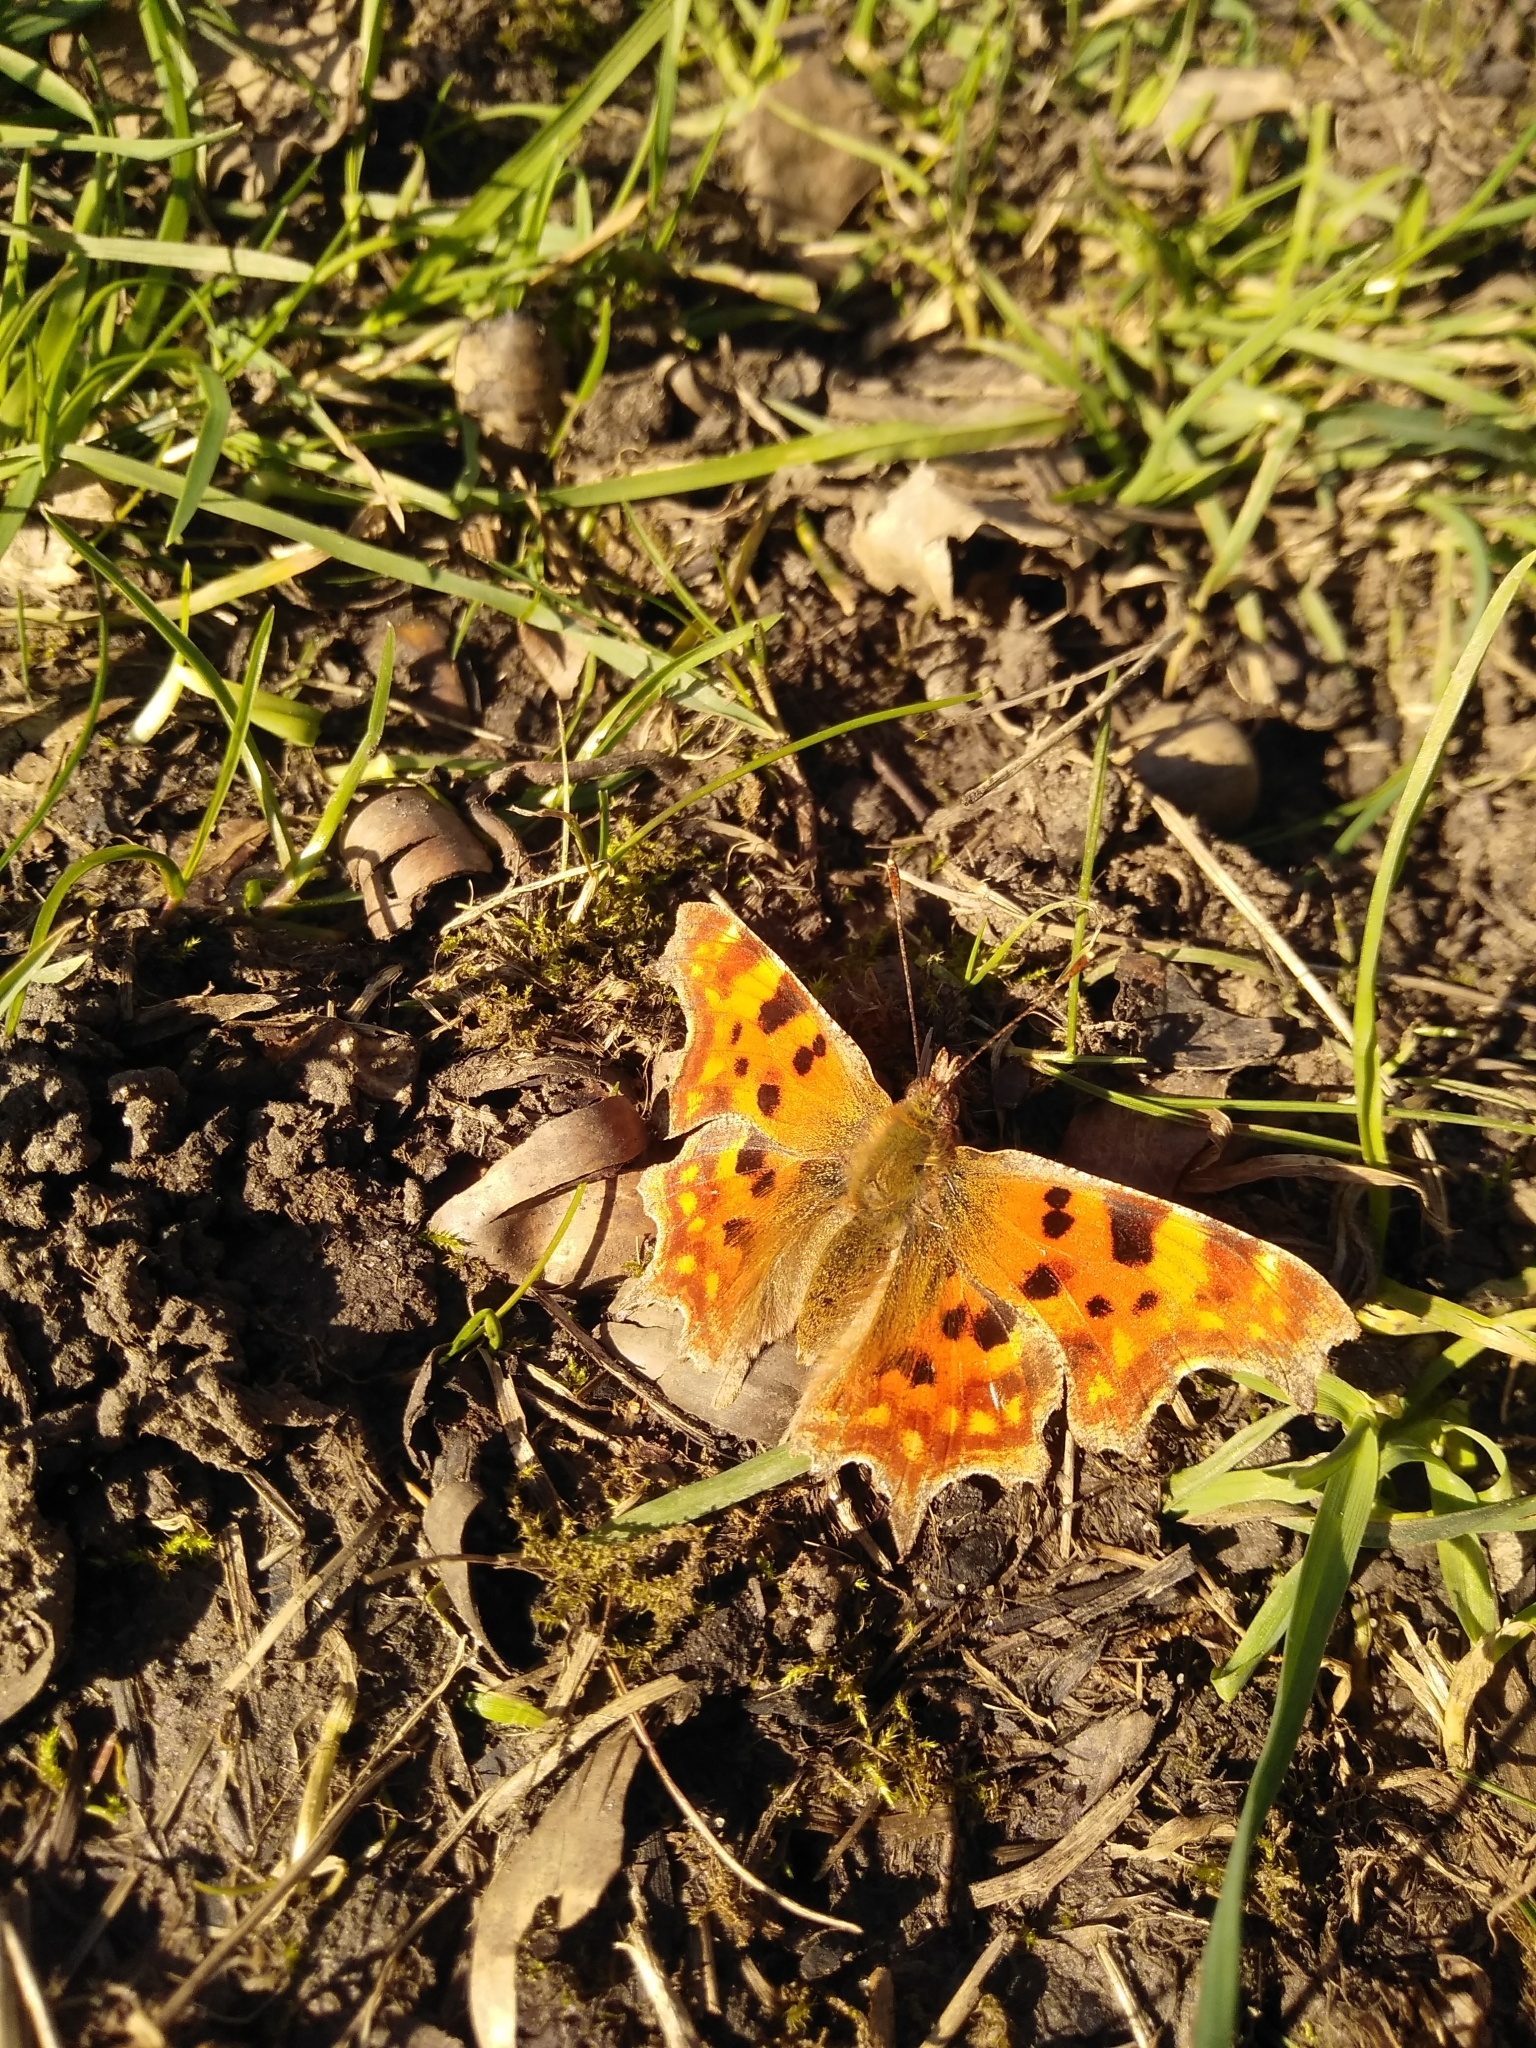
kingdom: Animalia
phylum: Arthropoda
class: Insecta
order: Lepidoptera
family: Nymphalidae
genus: Polygonia
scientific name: Polygonia c-album
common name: Comma
